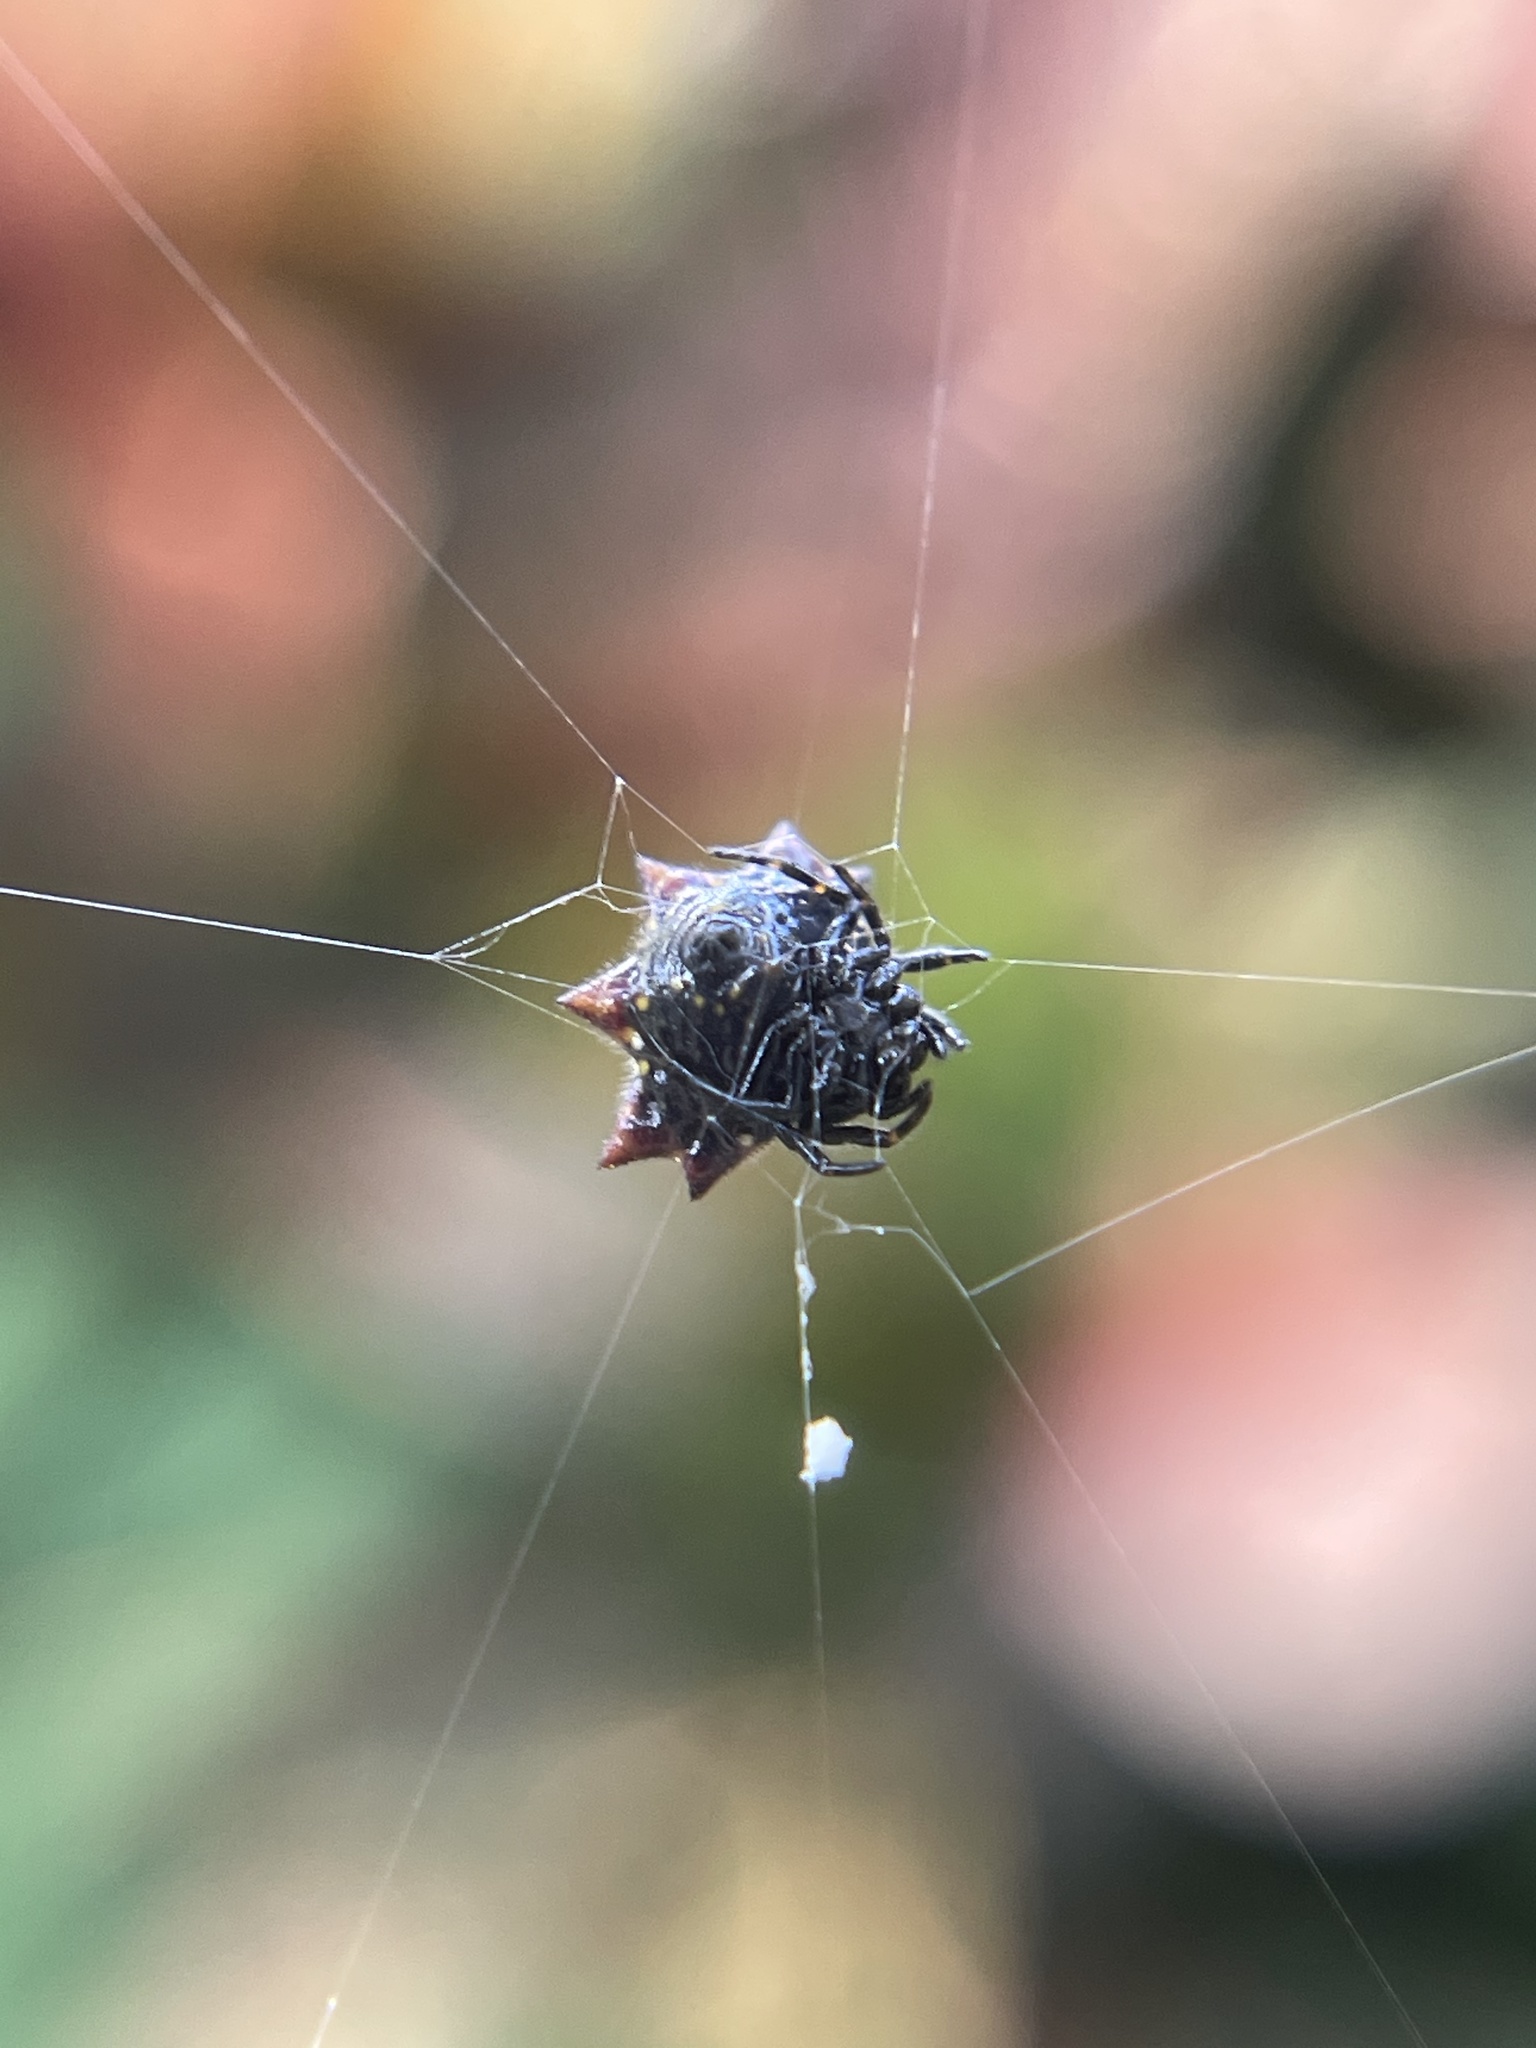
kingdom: Animalia
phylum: Arthropoda
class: Arachnida
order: Araneae
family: Araneidae
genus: Gasteracantha
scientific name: Gasteracantha cancriformis
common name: Orb weavers
